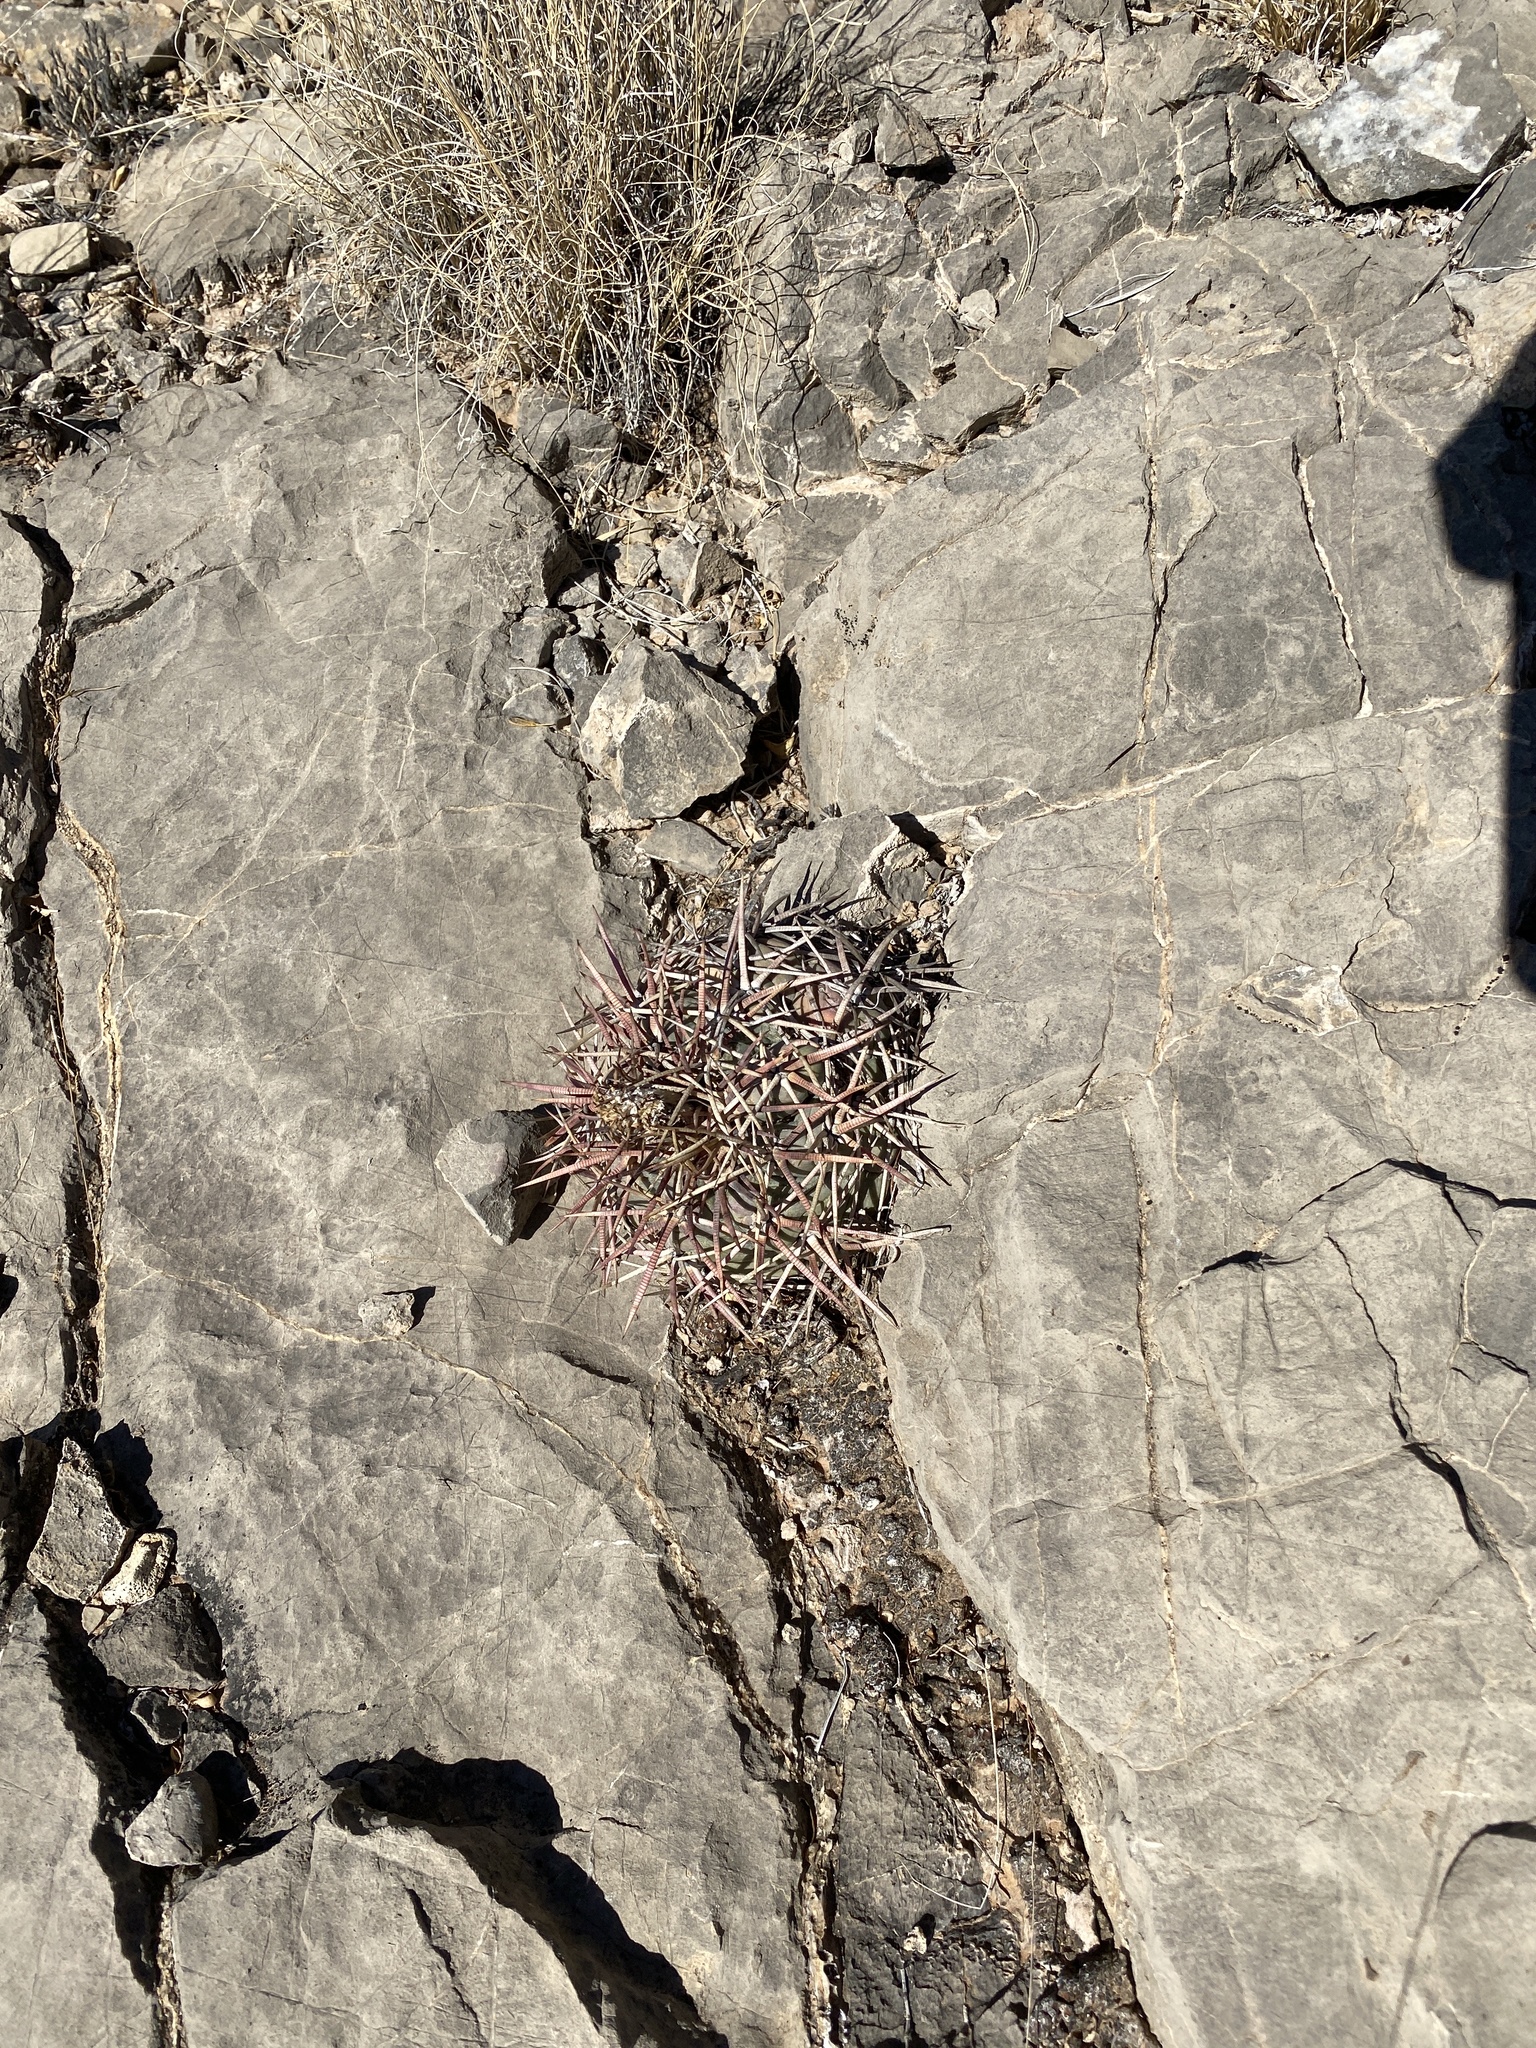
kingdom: Plantae
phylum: Tracheophyta
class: Magnoliopsida
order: Caryophyllales
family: Cactaceae
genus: Echinocactus
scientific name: Echinocactus horizonthalonius
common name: Devilshead
